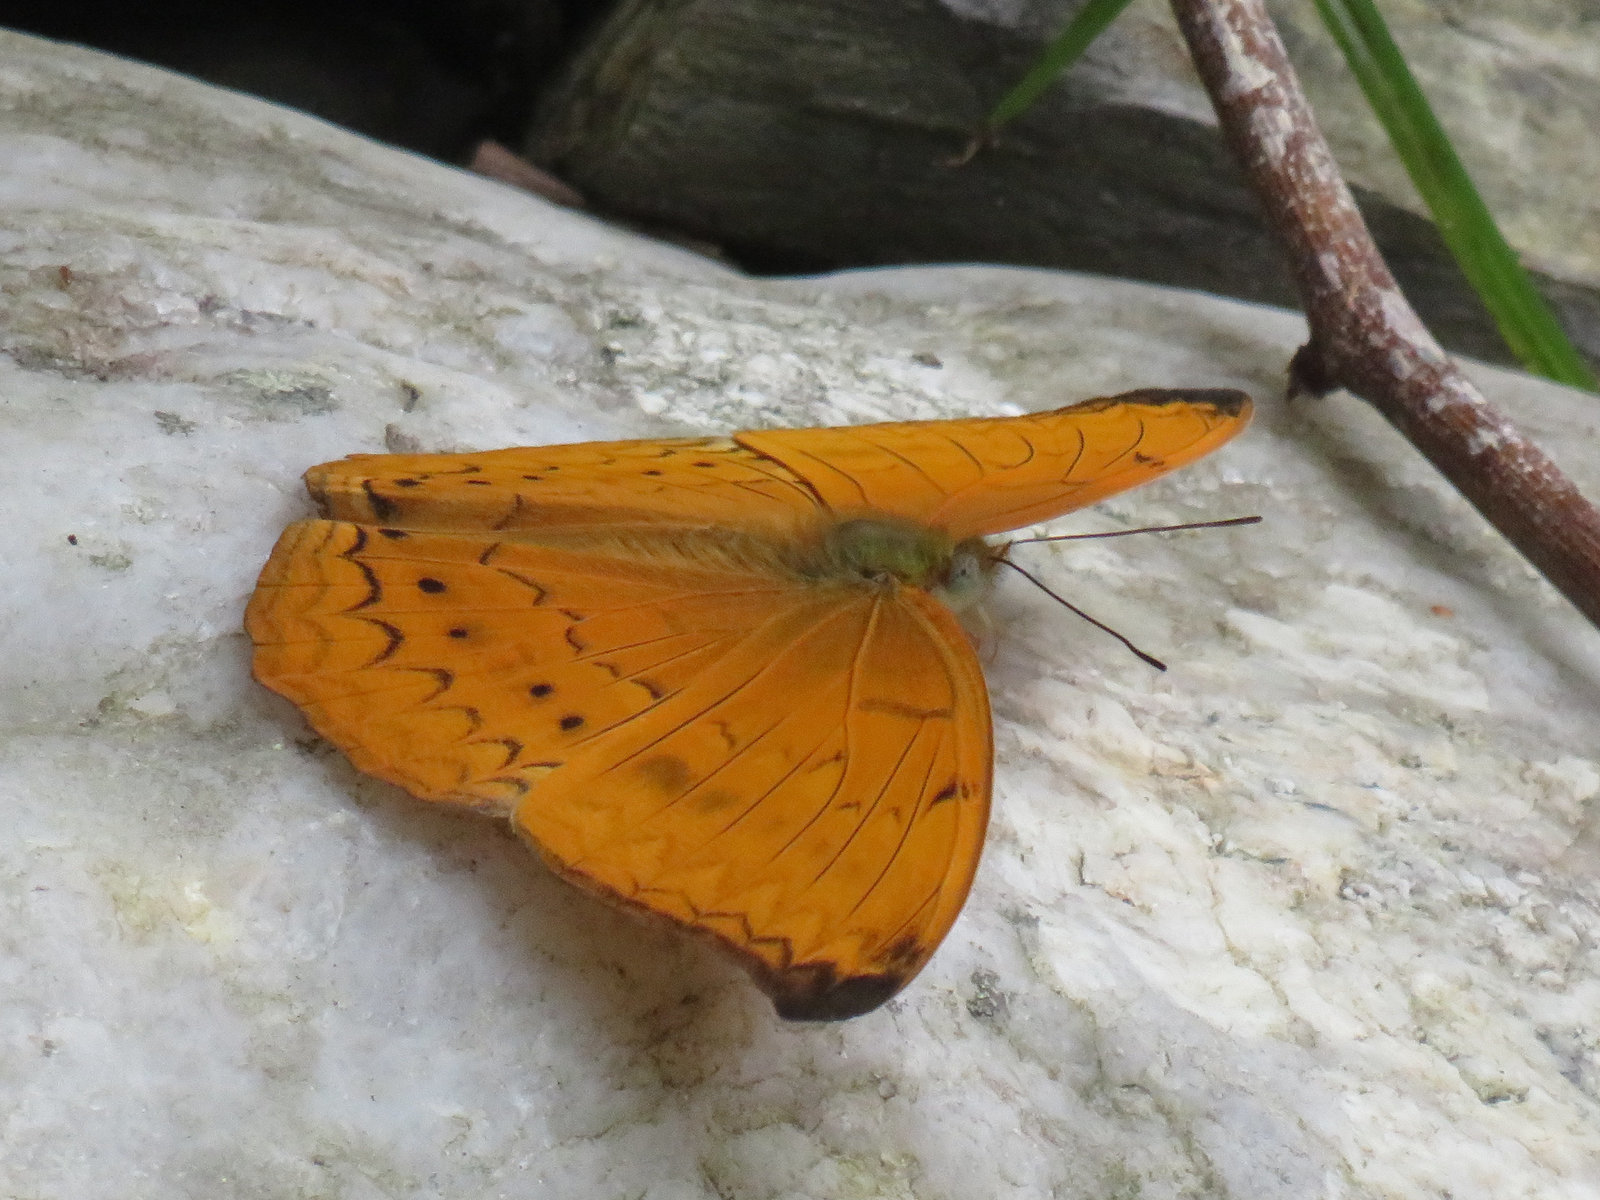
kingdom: Animalia
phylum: Arthropoda
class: Insecta
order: Lepidoptera
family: Nymphalidae
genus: Cirrochroa
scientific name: Cirrochroa aoris
